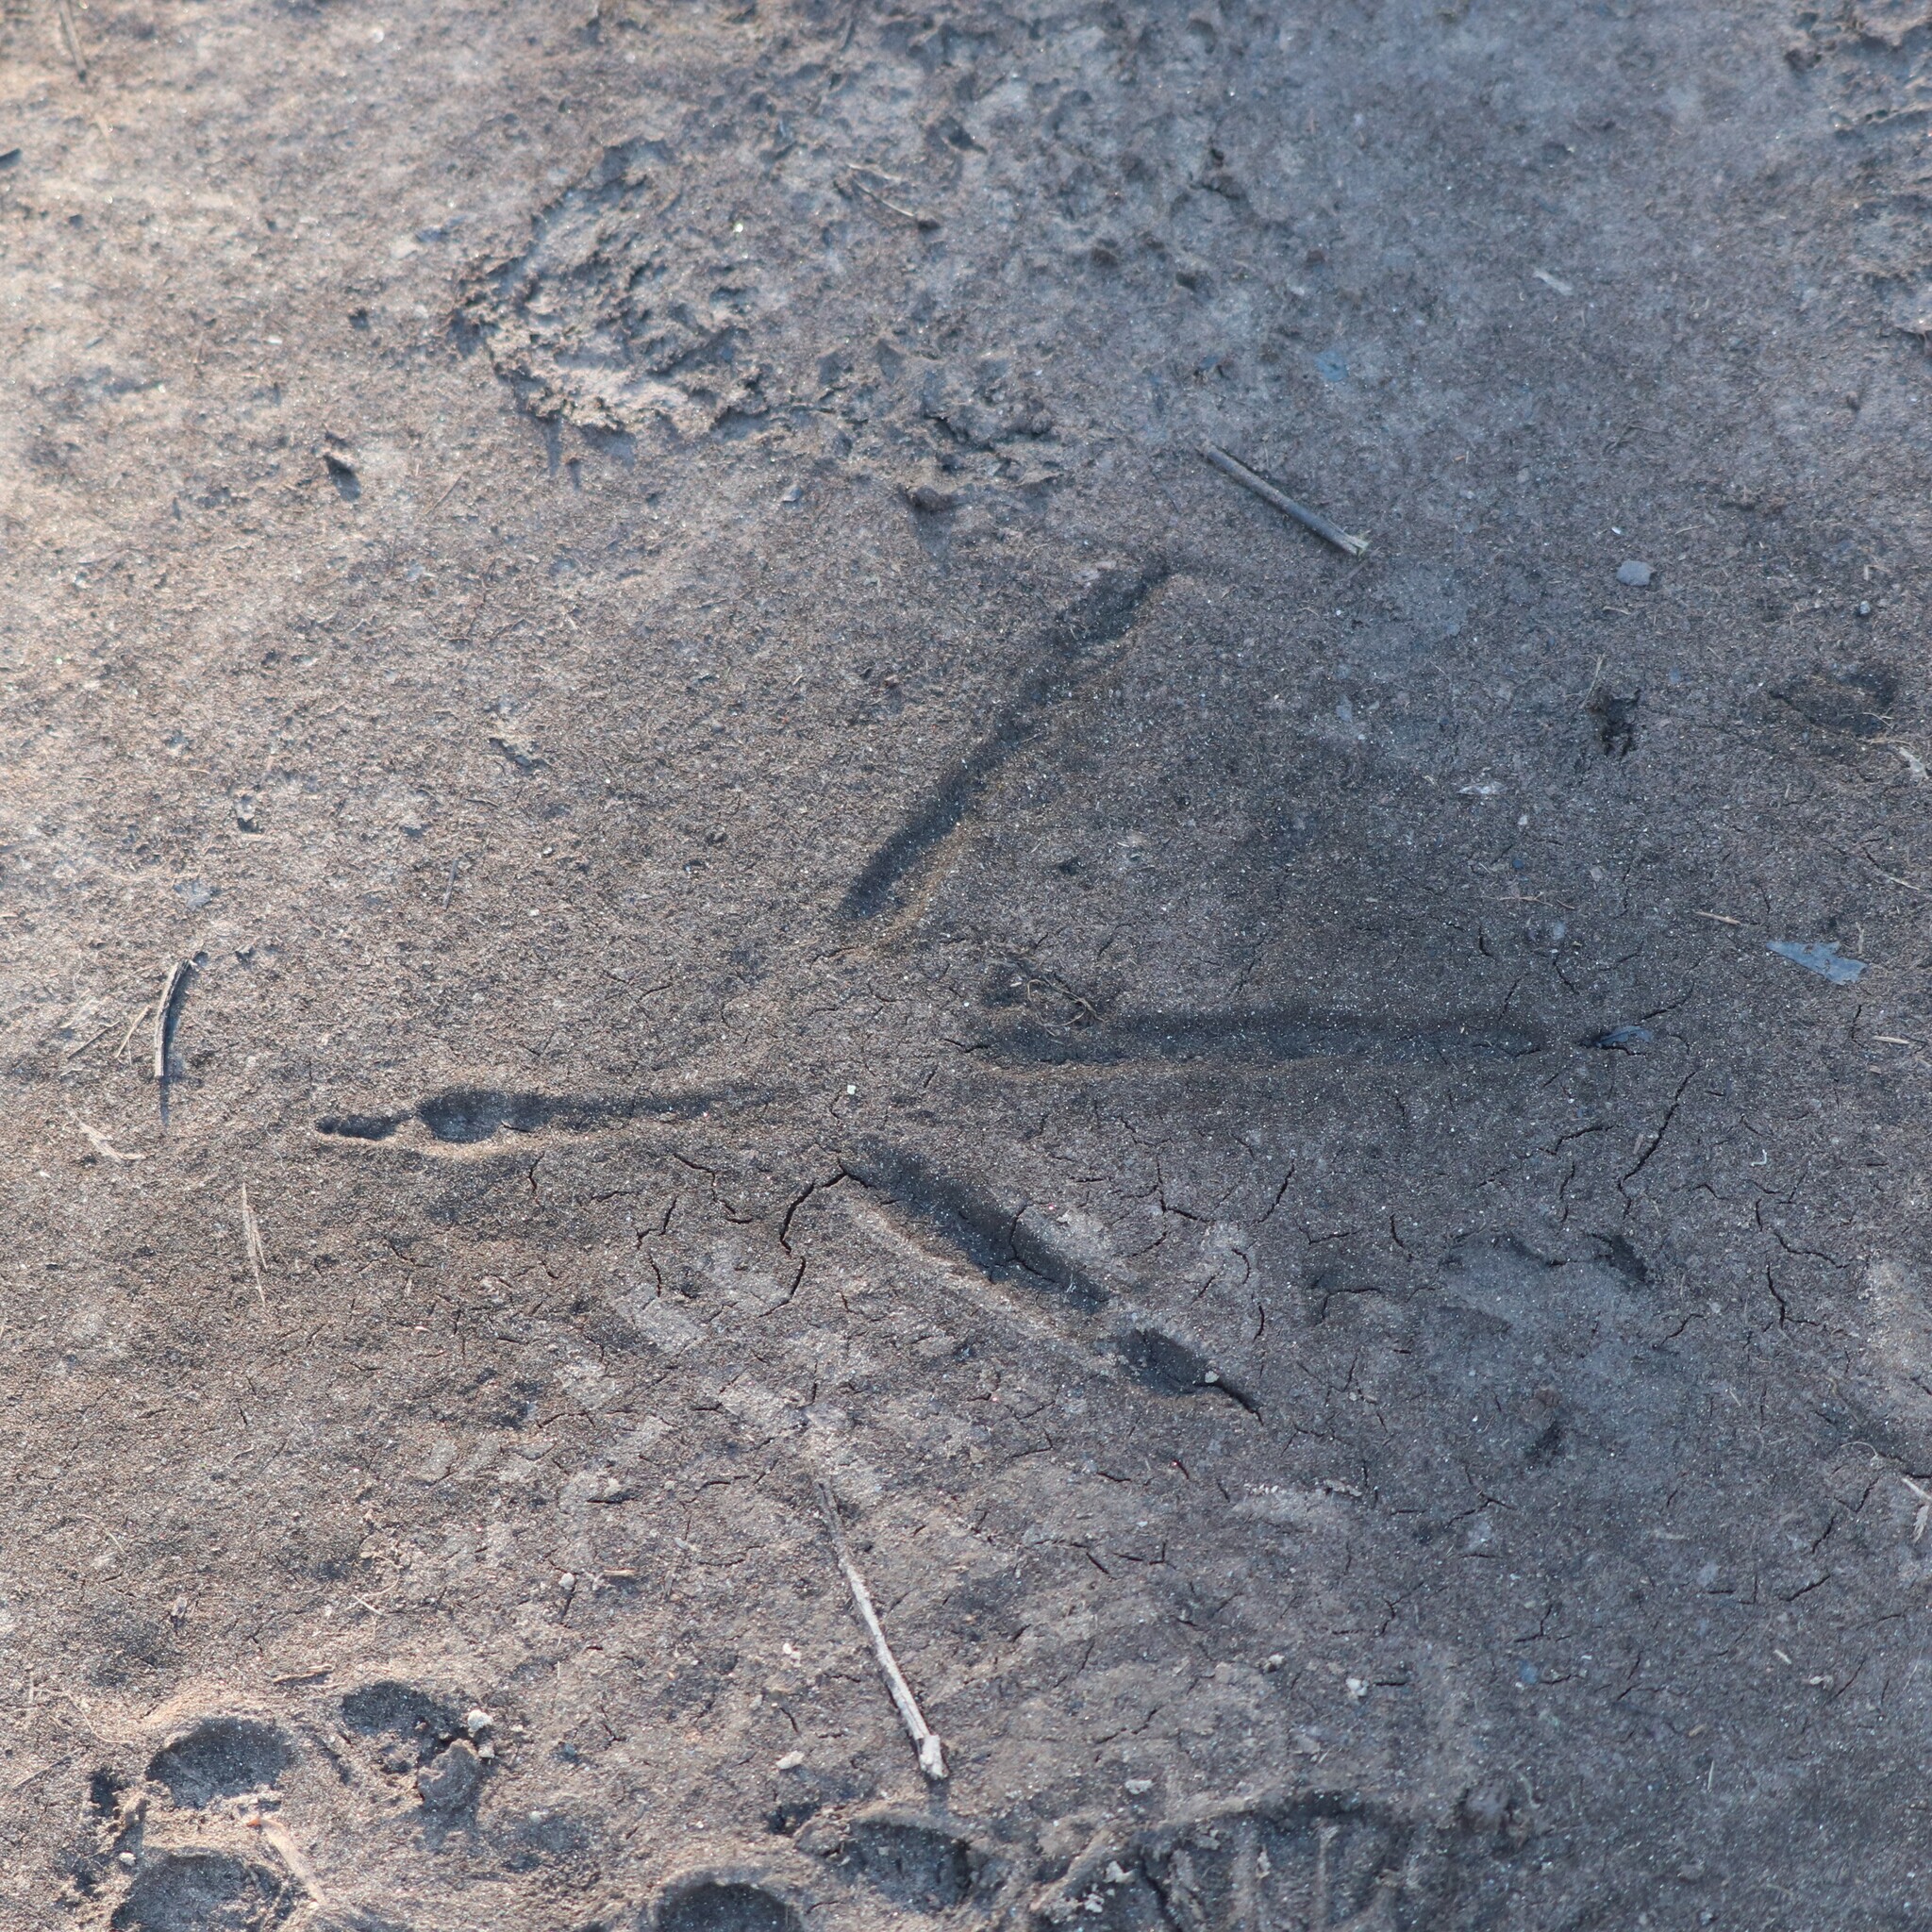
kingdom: Animalia
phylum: Chordata
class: Aves
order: Pelecaniformes
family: Ardeidae
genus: Ardea
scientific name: Ardea herodias
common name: Great blue heron
